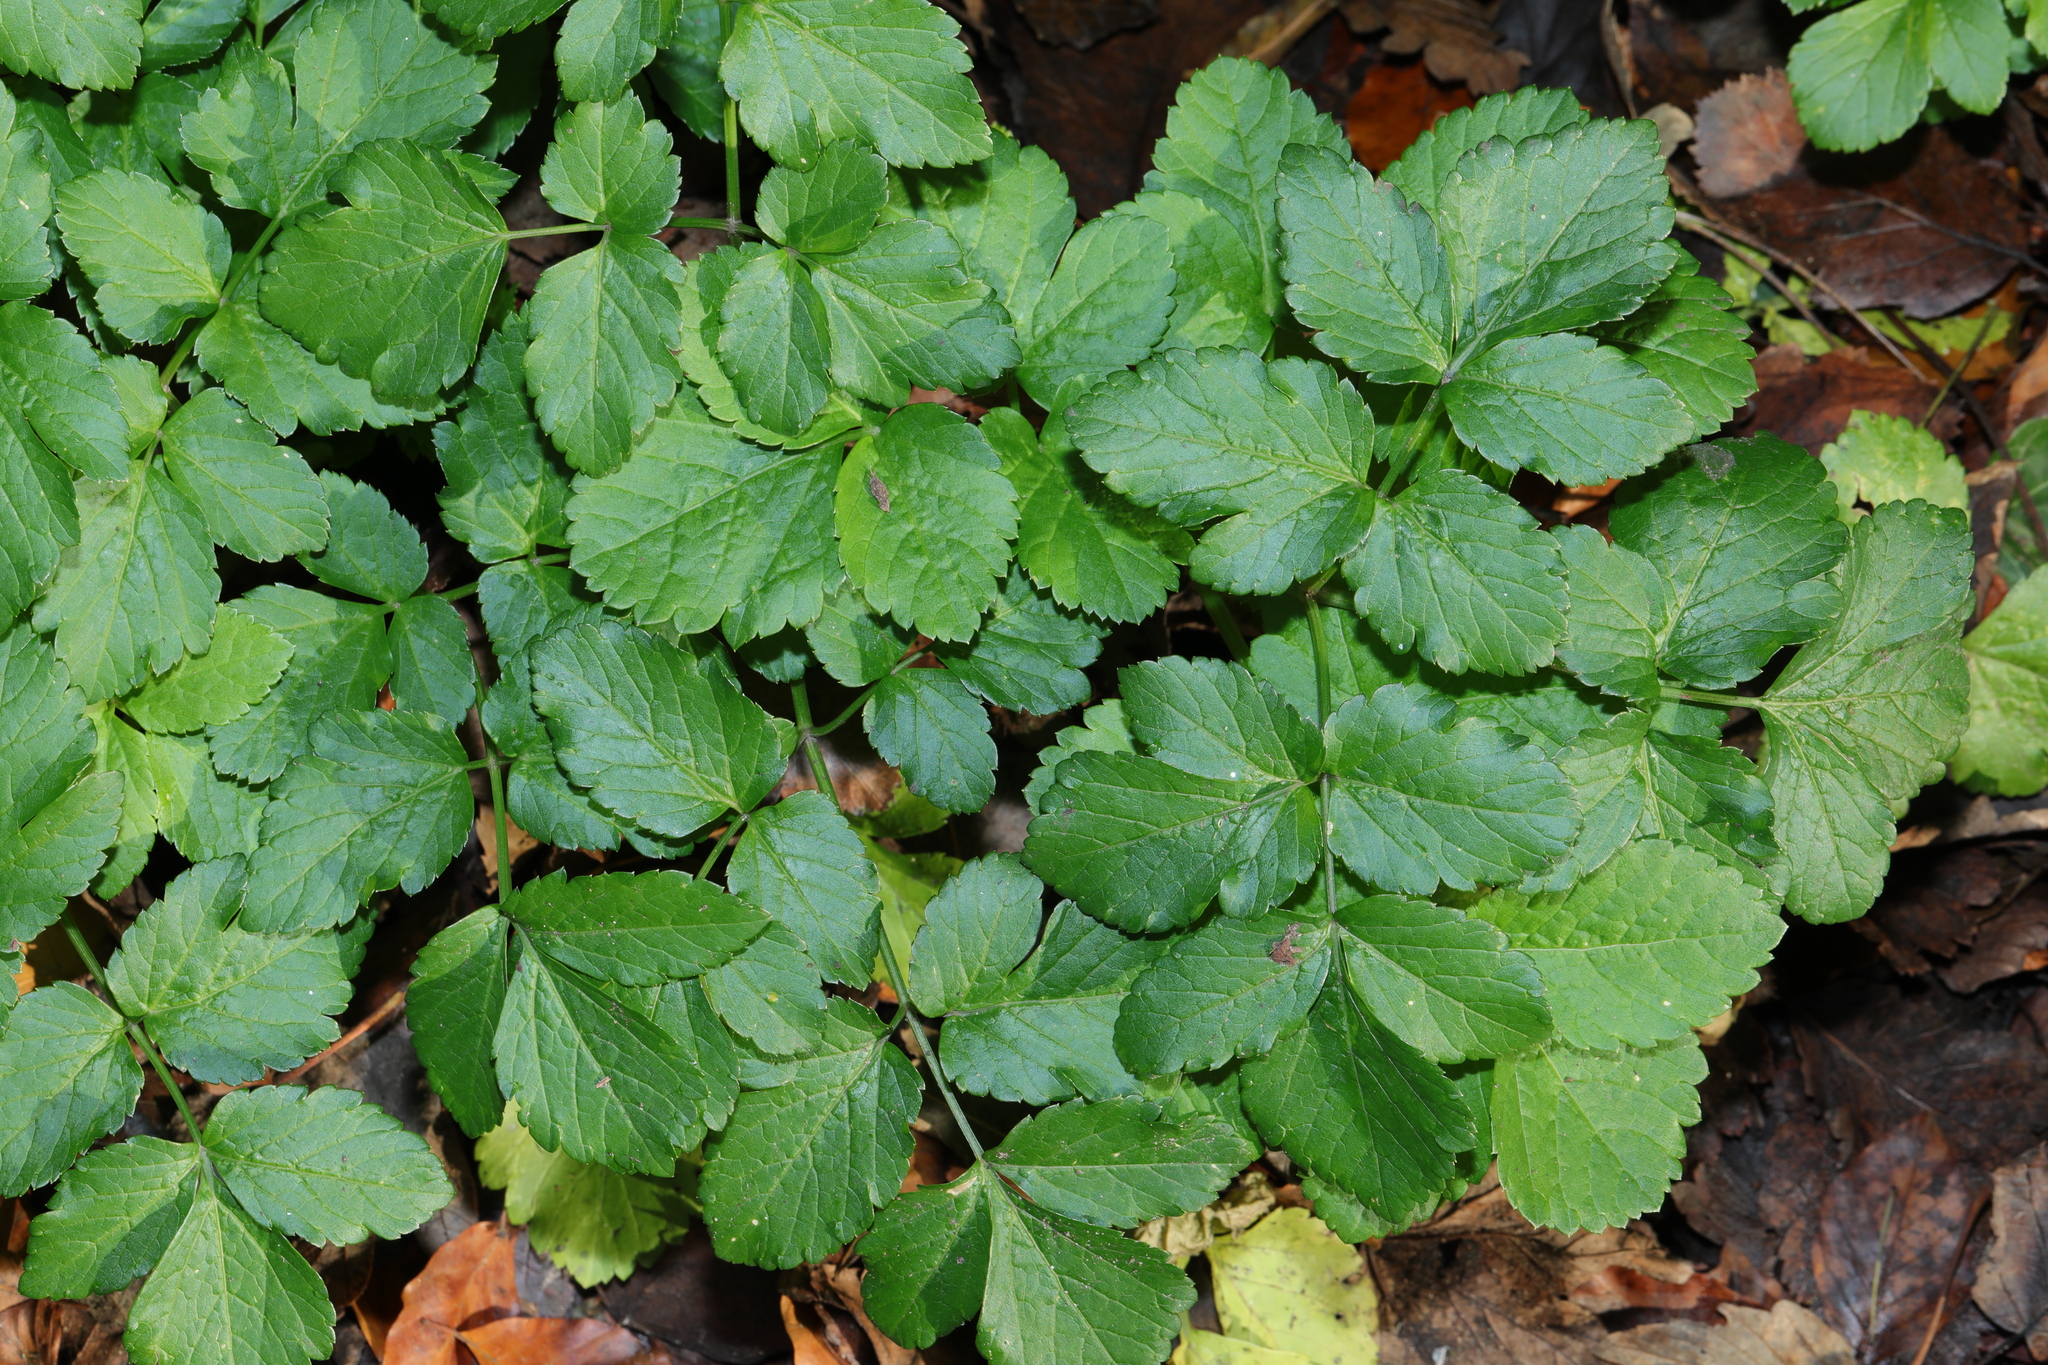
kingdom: Plantae
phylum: Tracheophyta
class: Magnoliopsida
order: Apiales
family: Apiaceae
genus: Smyrnium
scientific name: Smyrnium olusatrum
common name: Alexanders
